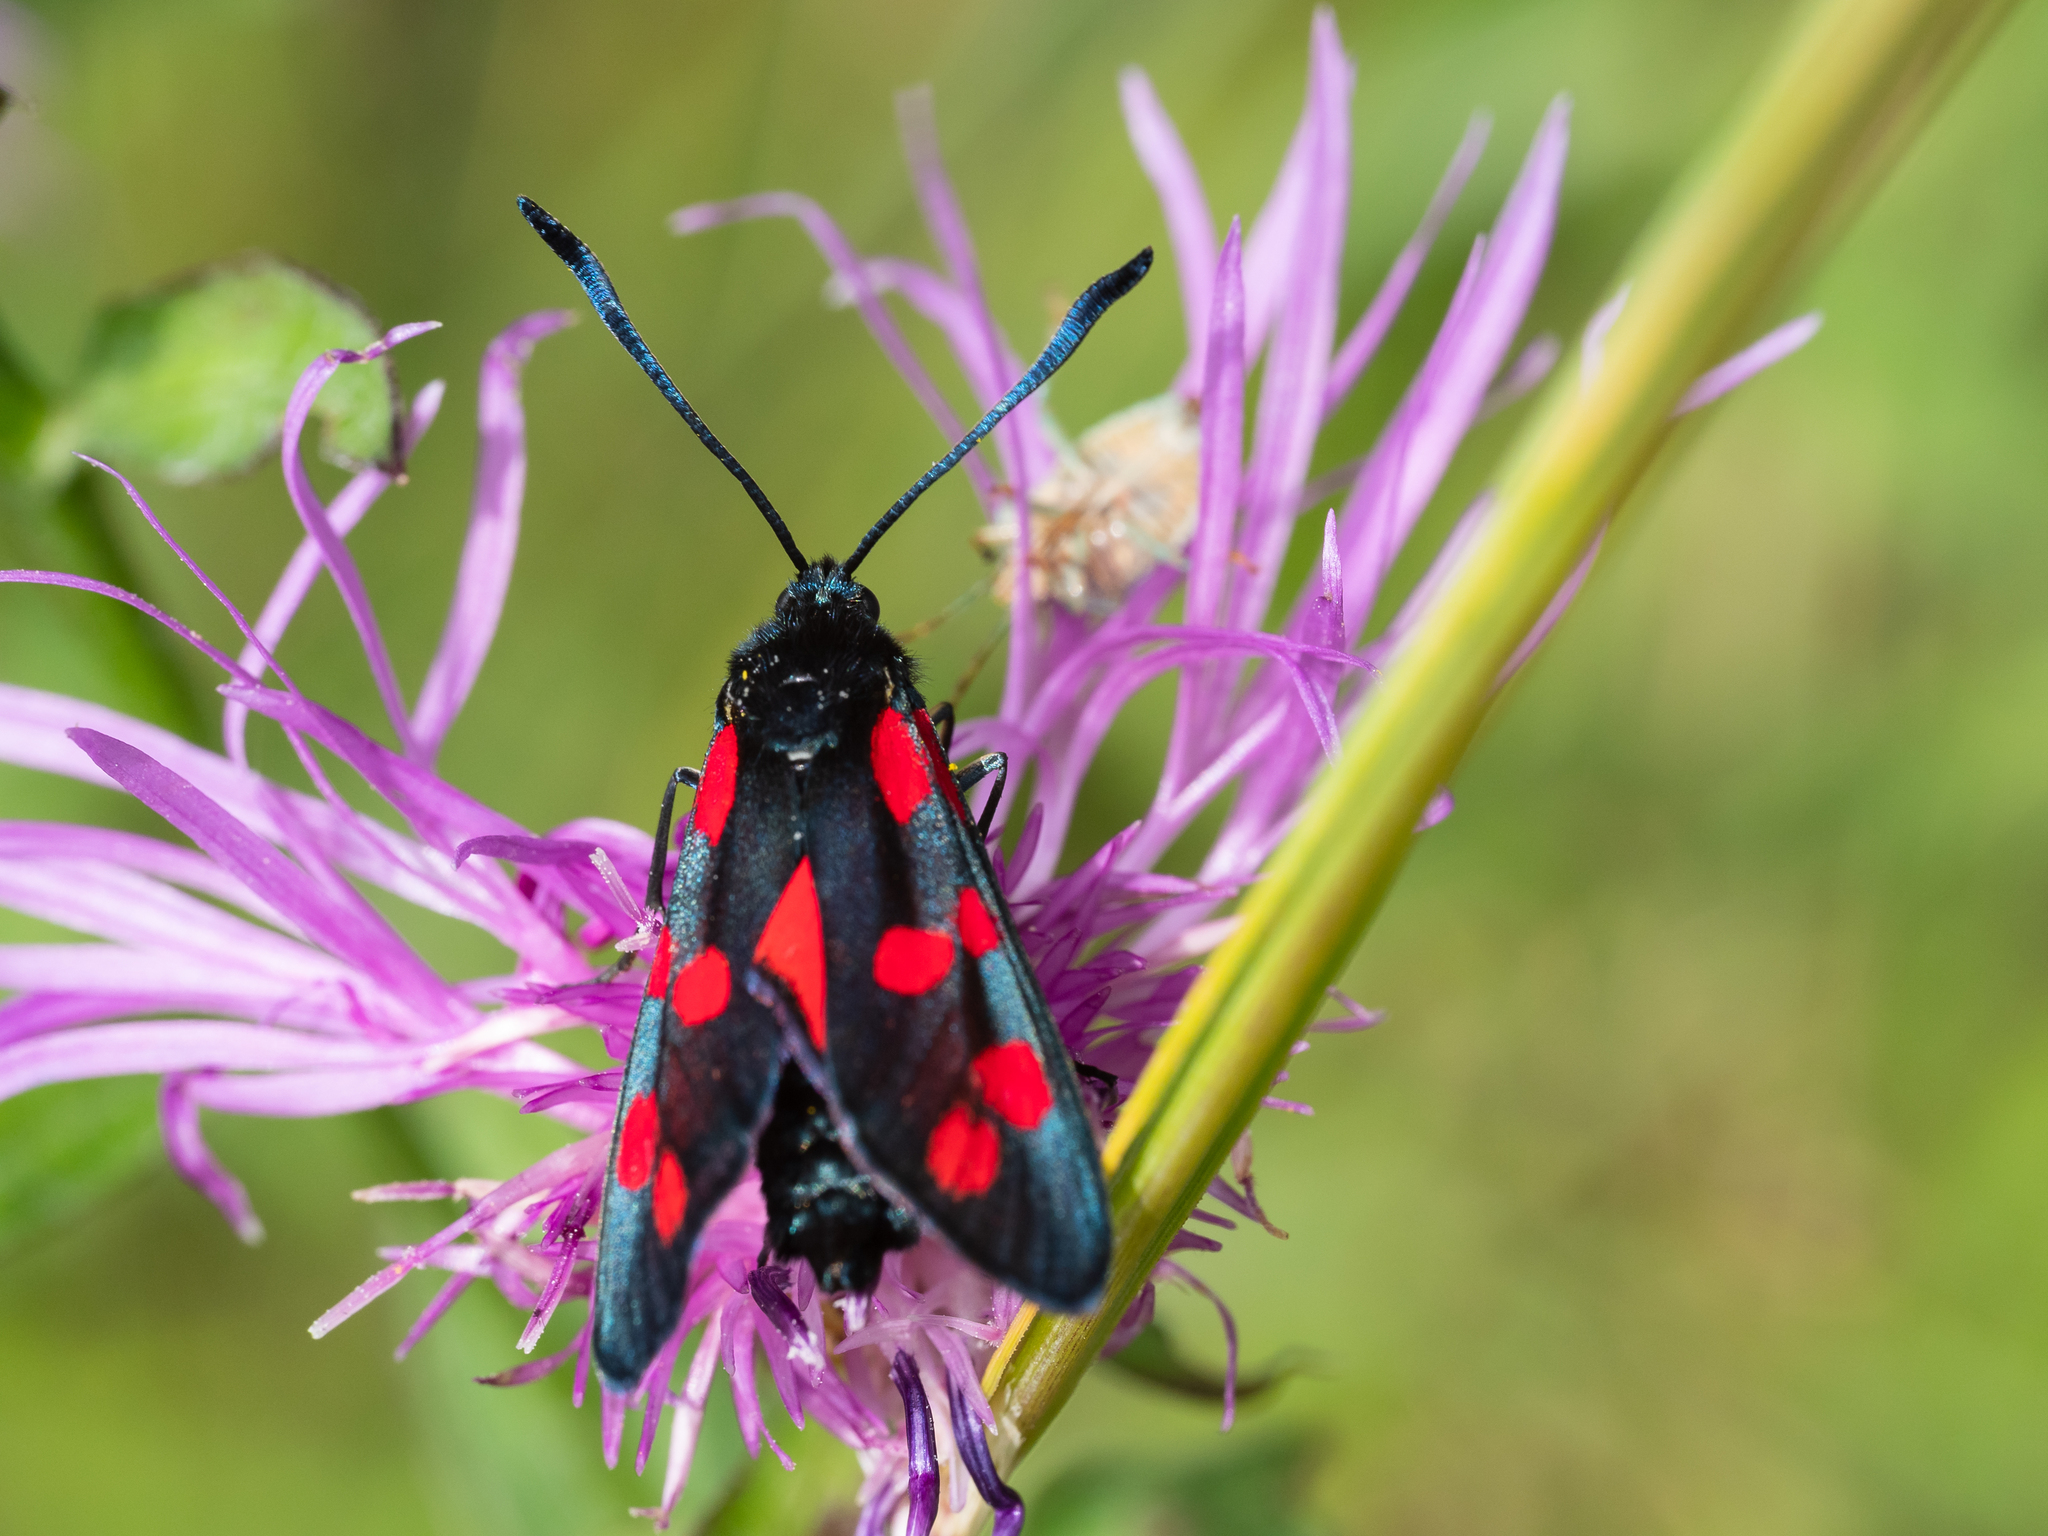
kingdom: Animalia
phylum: Arthropoda
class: Insecta
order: Lepidoptera
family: Zygaenidae
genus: Zygaena
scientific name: Zygaena filipendulae
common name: Six-spot burnet
